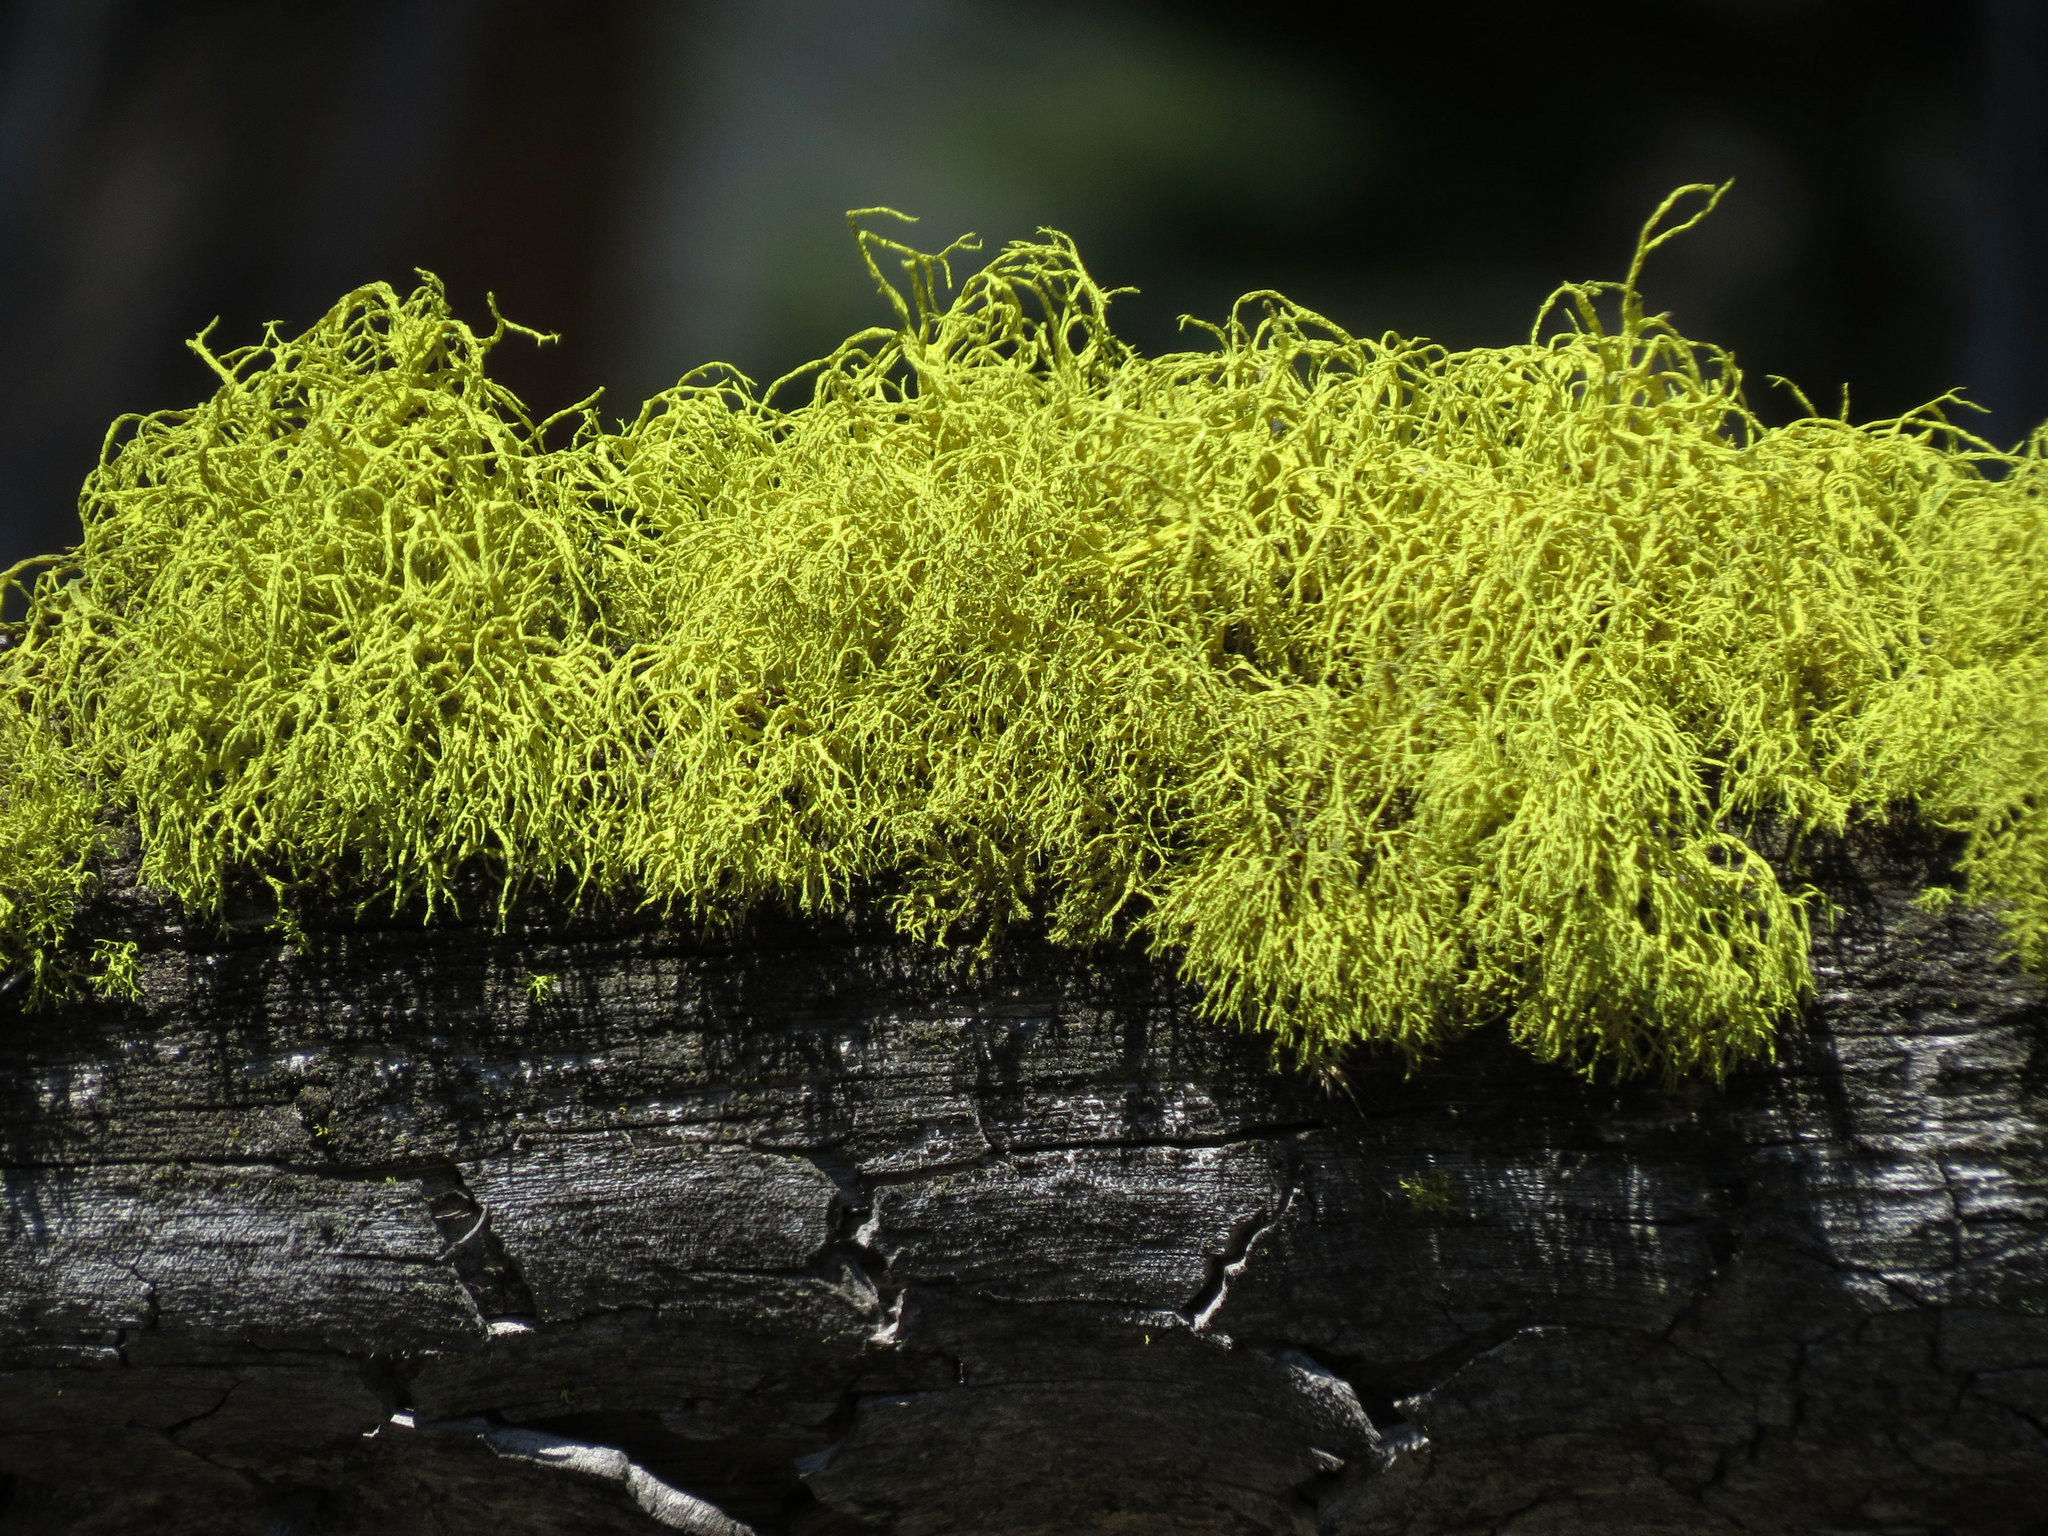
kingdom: Fungi
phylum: Ascomycota
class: Lecanoromycetes
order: Lecanorales
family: Parmeliaceae
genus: Letharia
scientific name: Letharia vulpina
